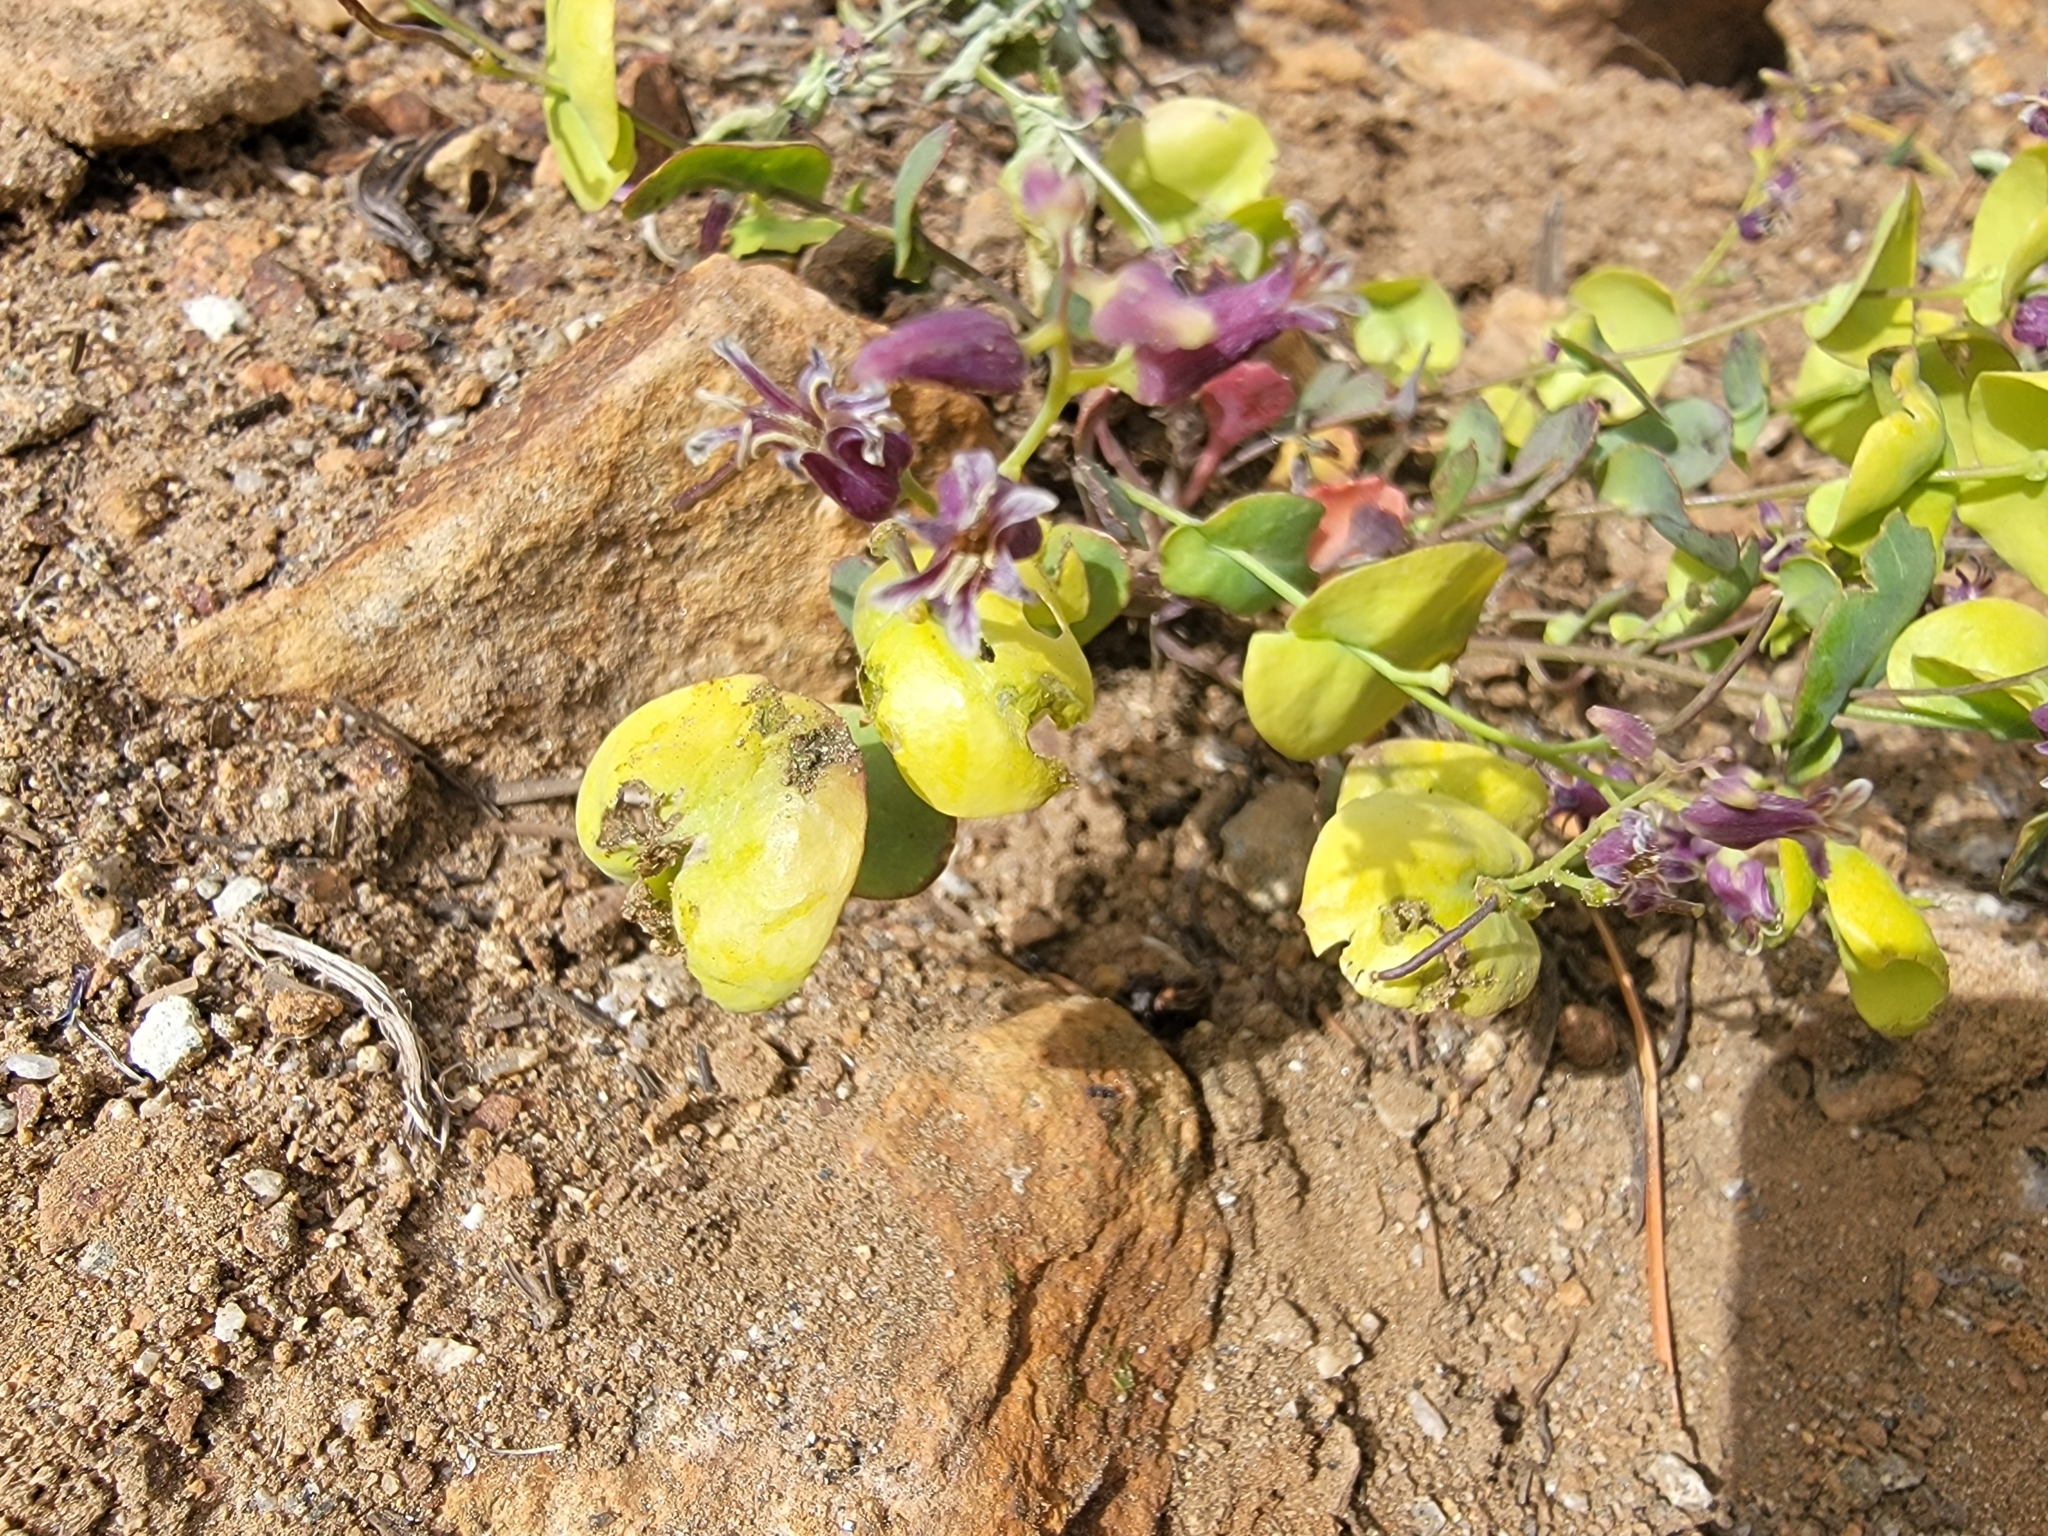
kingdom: Plantae
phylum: Tracheophyta
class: Magnoliopsida
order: Brassicales
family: Brassicaceae
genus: Streptanthus
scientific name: Streptanthus tortuosus
